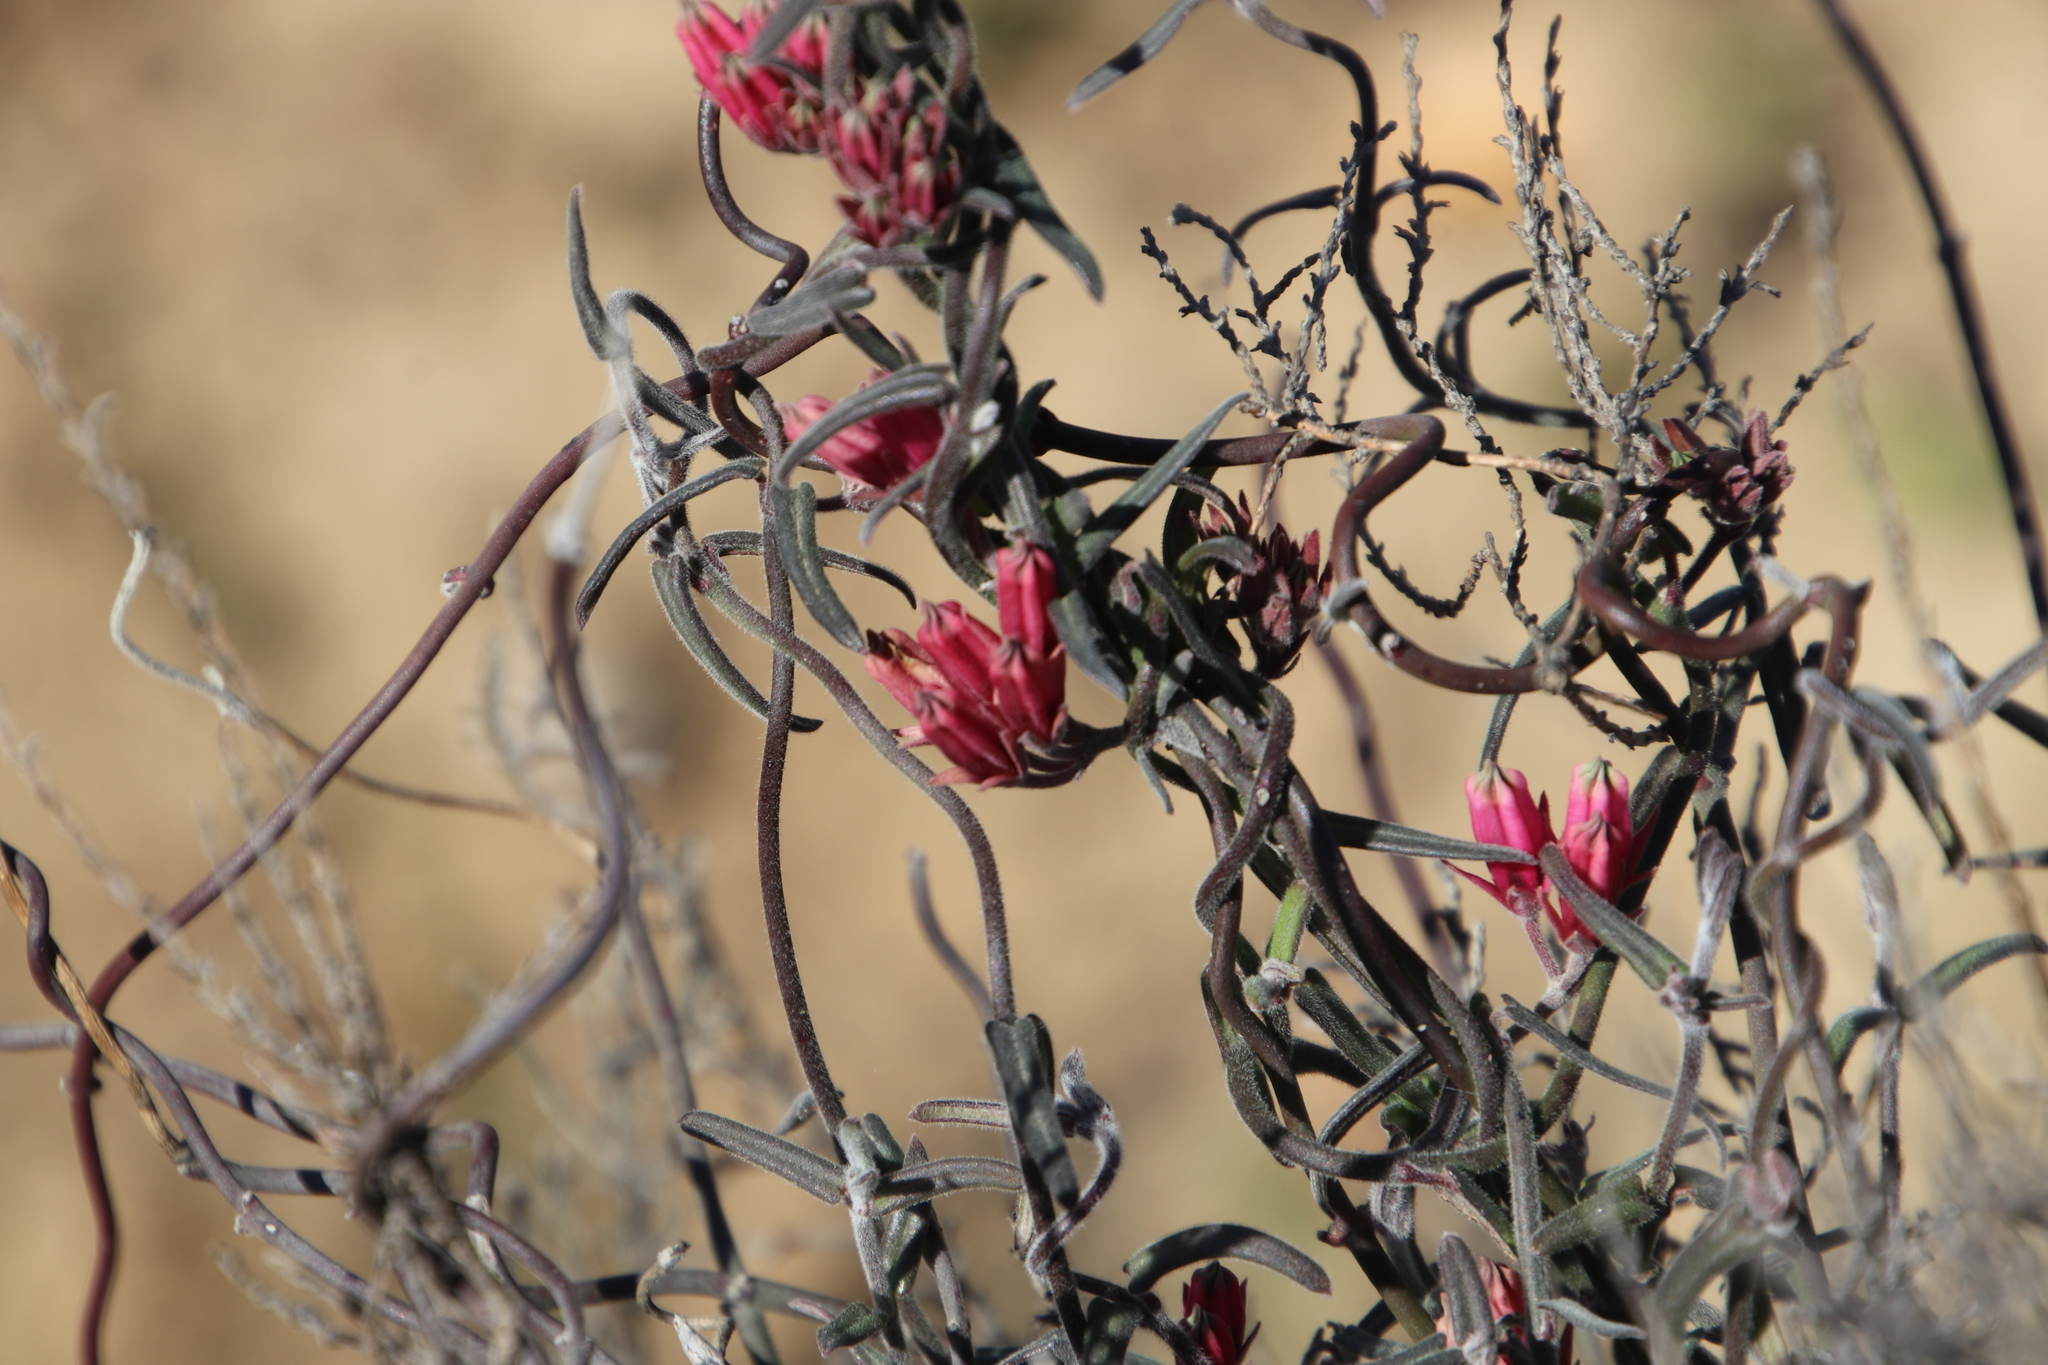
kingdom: Plantae
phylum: Tracheophyta
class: Magnoliopsida
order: Gentianales
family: Apocynaceae
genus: Microloma
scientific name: Microloma sagittatum
